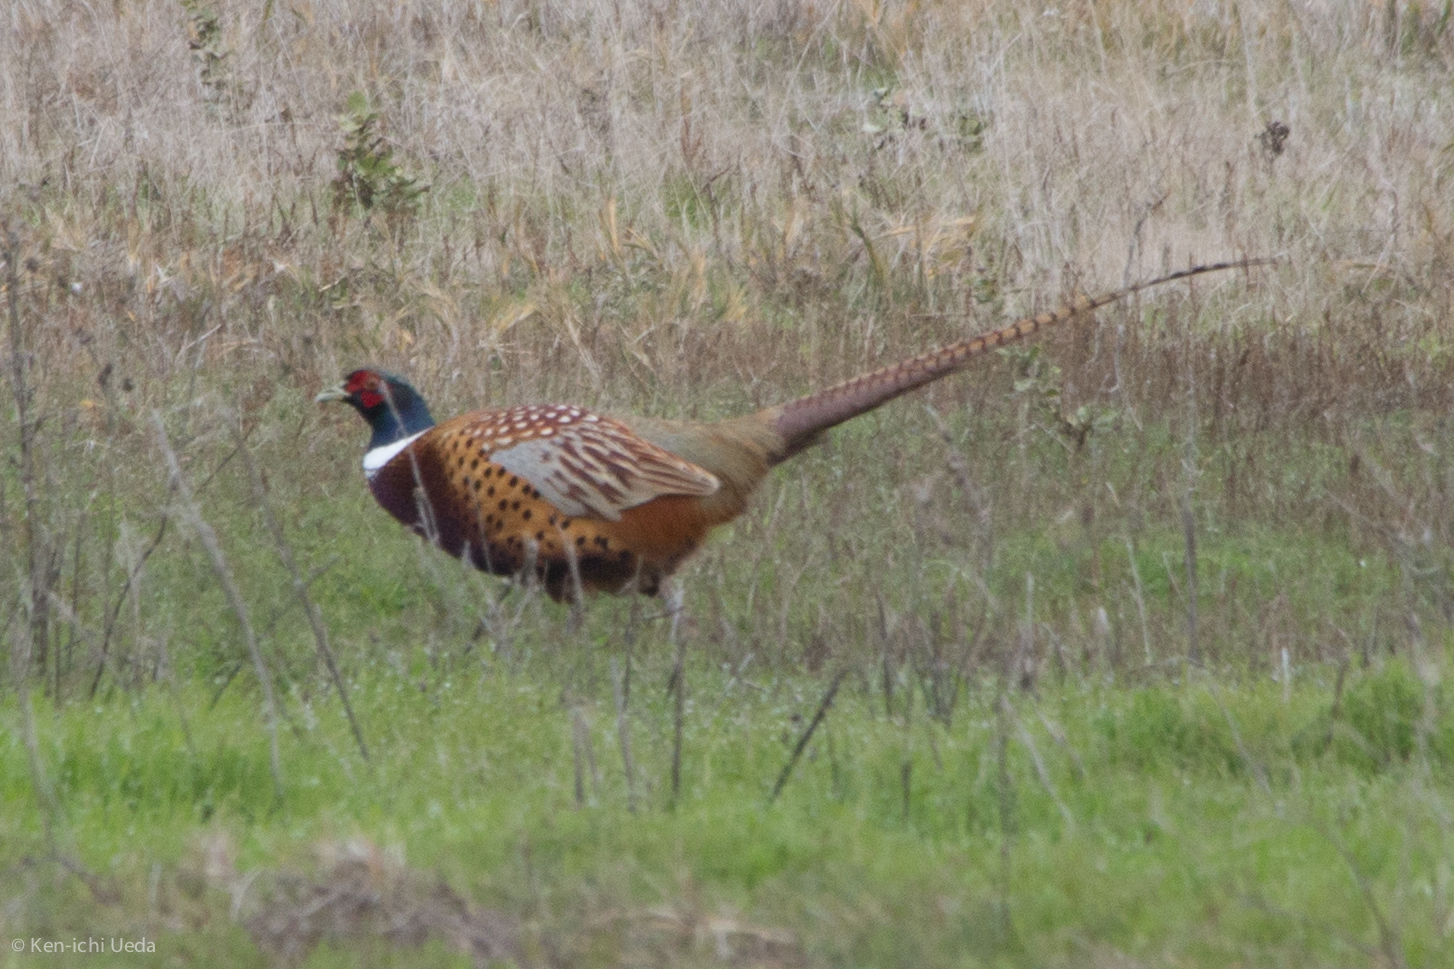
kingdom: Animalia
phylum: Chordata
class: Aves
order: Galliformes
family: Phasianidae
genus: Phasianus
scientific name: Phasianus colchicus
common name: Common pheasant
